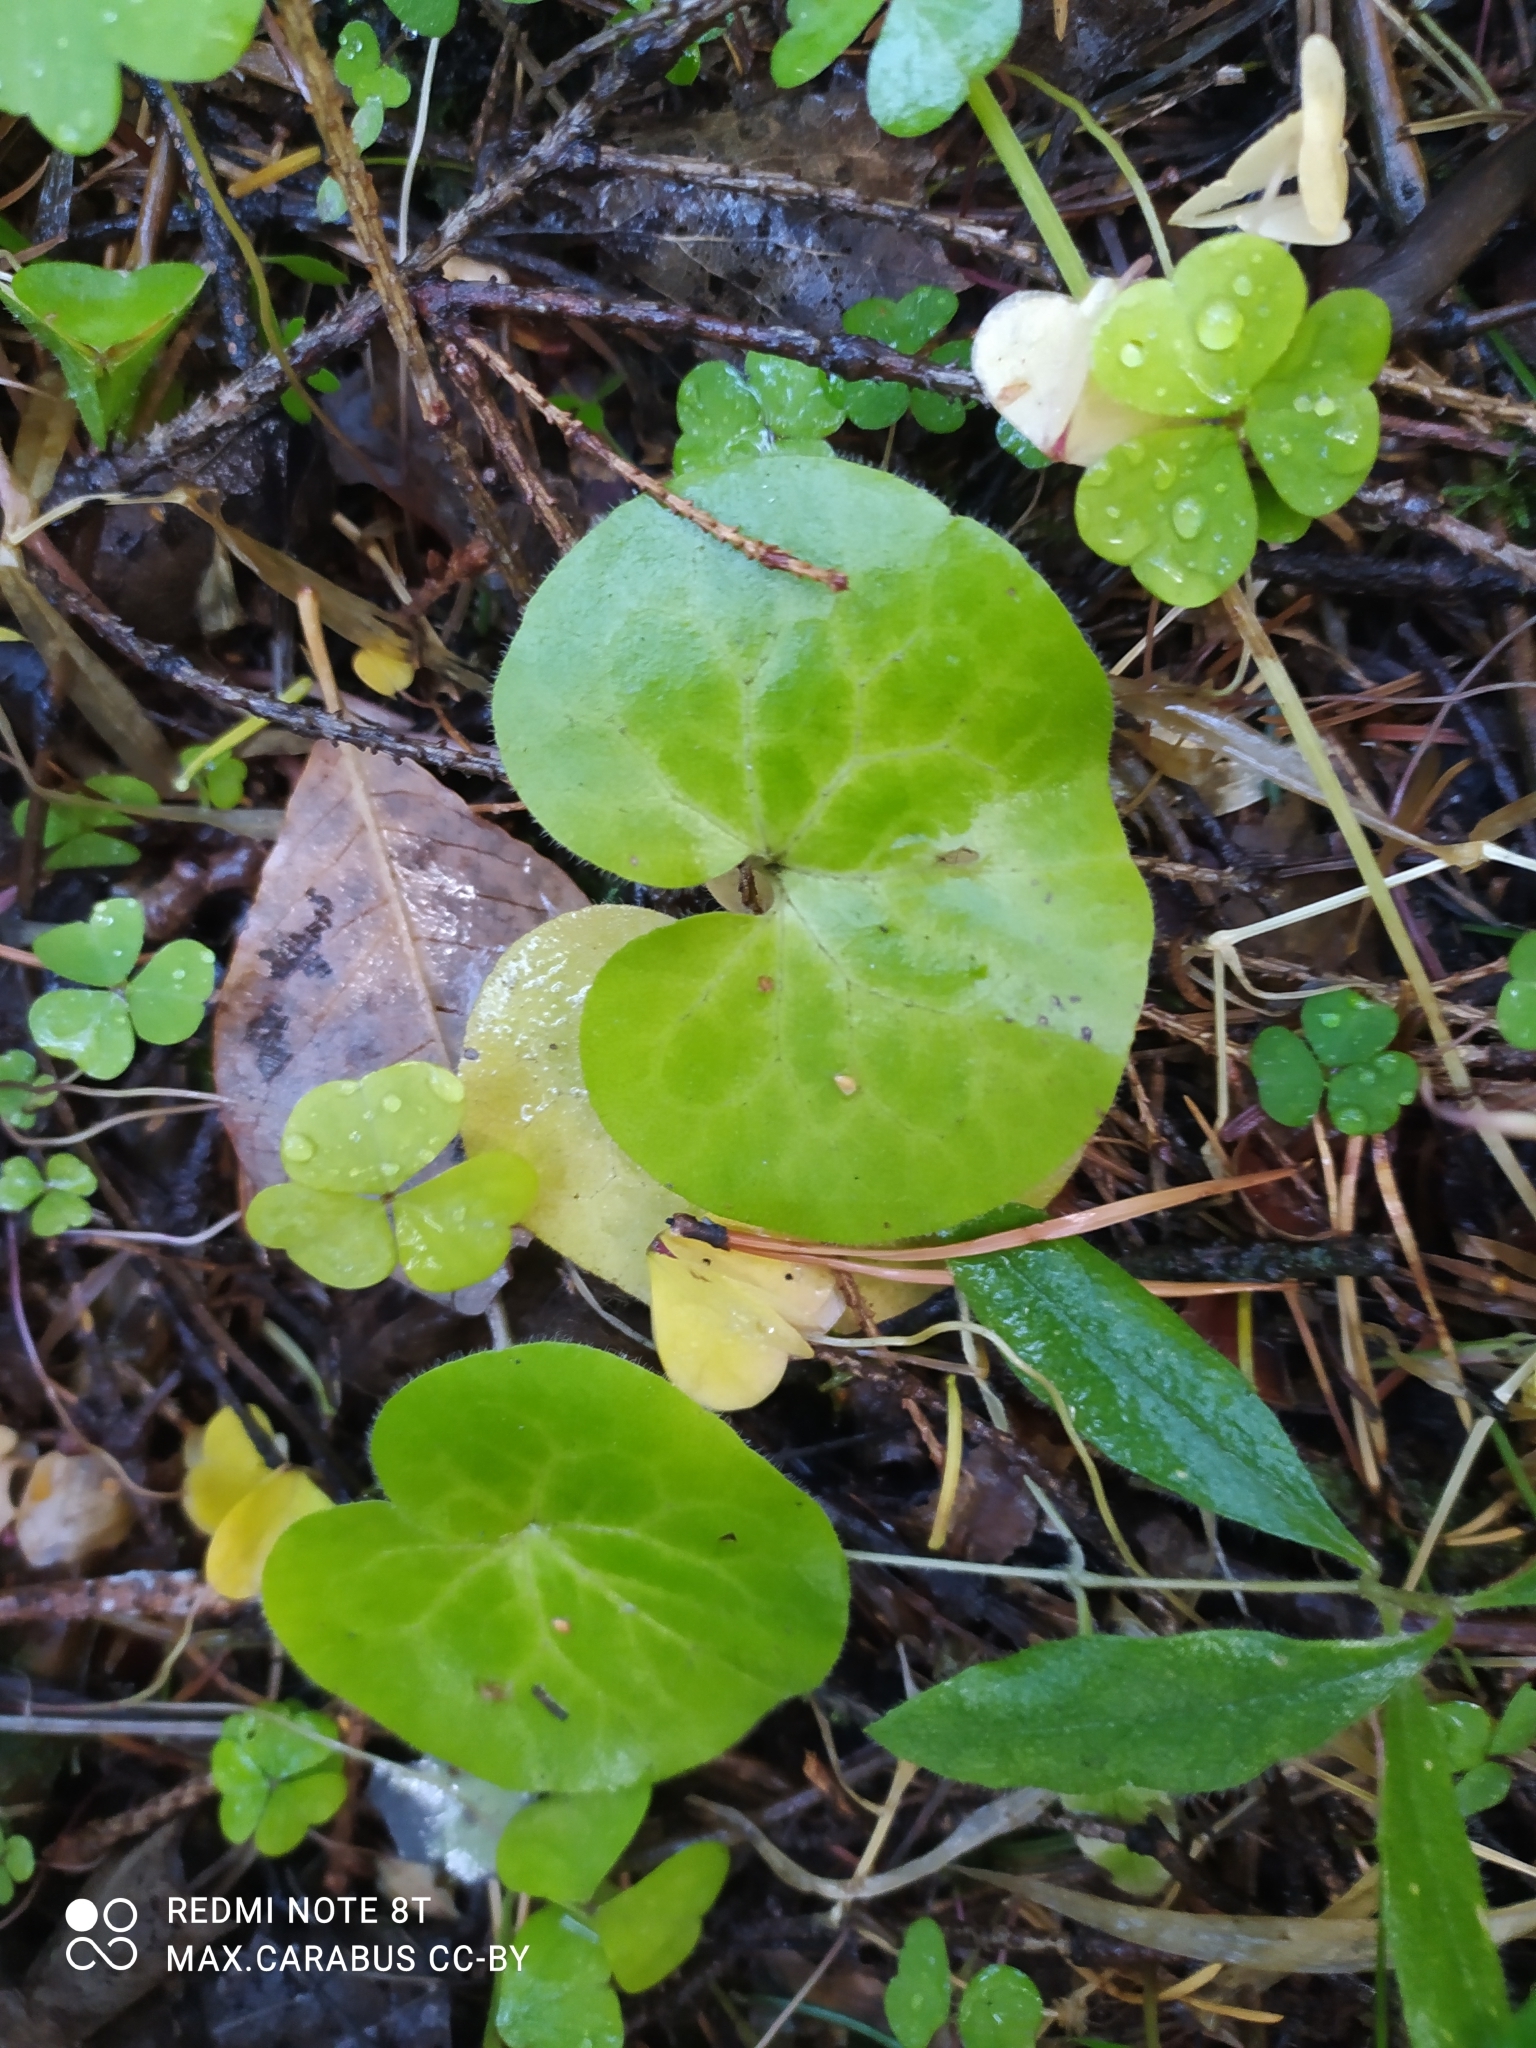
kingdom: Plantae
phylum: Tracheophyta
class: Magnoliopsida
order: Piperales
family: Aristolochiaceae
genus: Asarum
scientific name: Asarum europaeum
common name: Asarabacca
